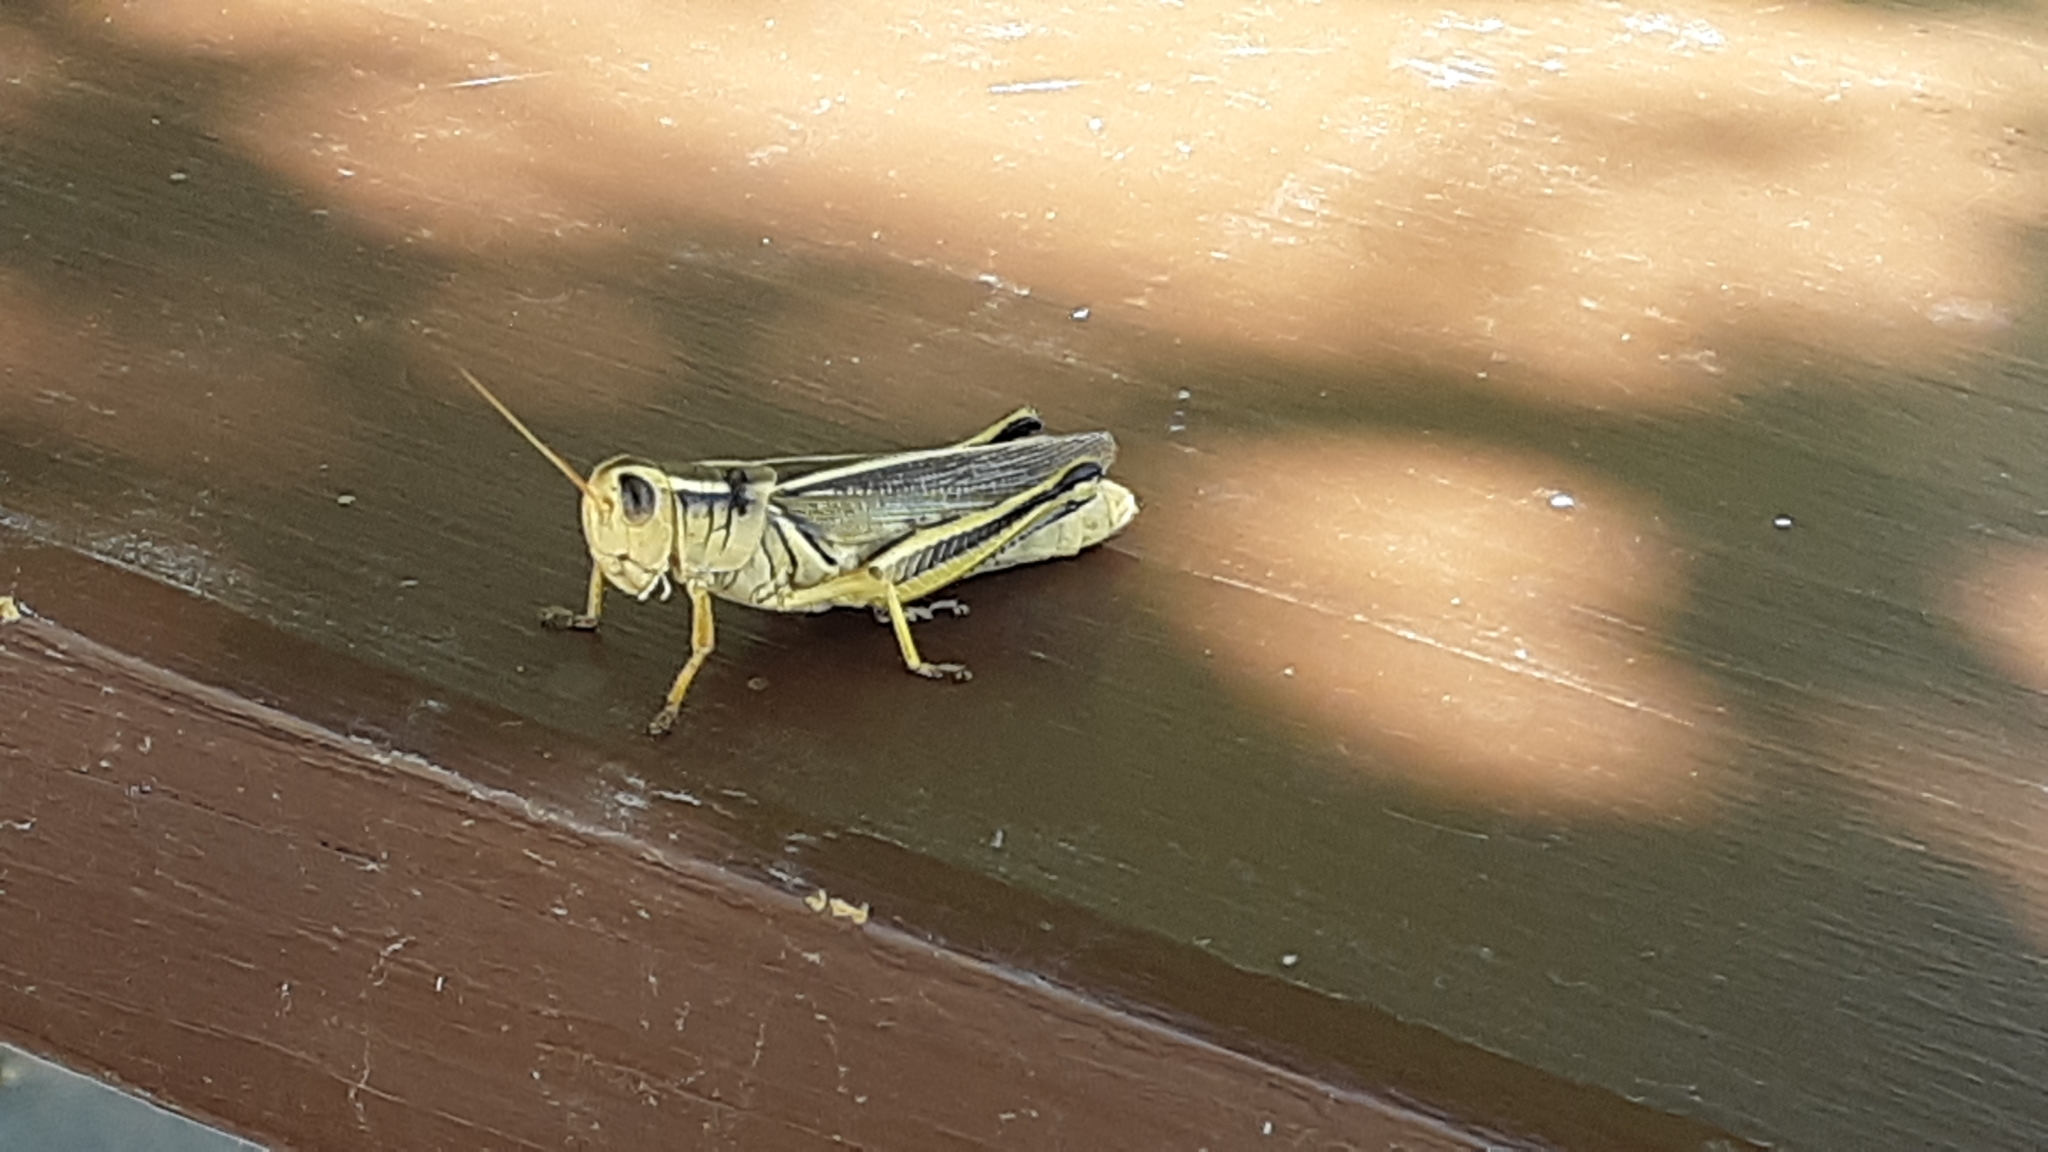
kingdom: Animalia
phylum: Arthropoda
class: Insecta
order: Orthoptera
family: Acrididae
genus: Melanoplus
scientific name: Melanoplus bivittatus
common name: Two-striped grasshopper
